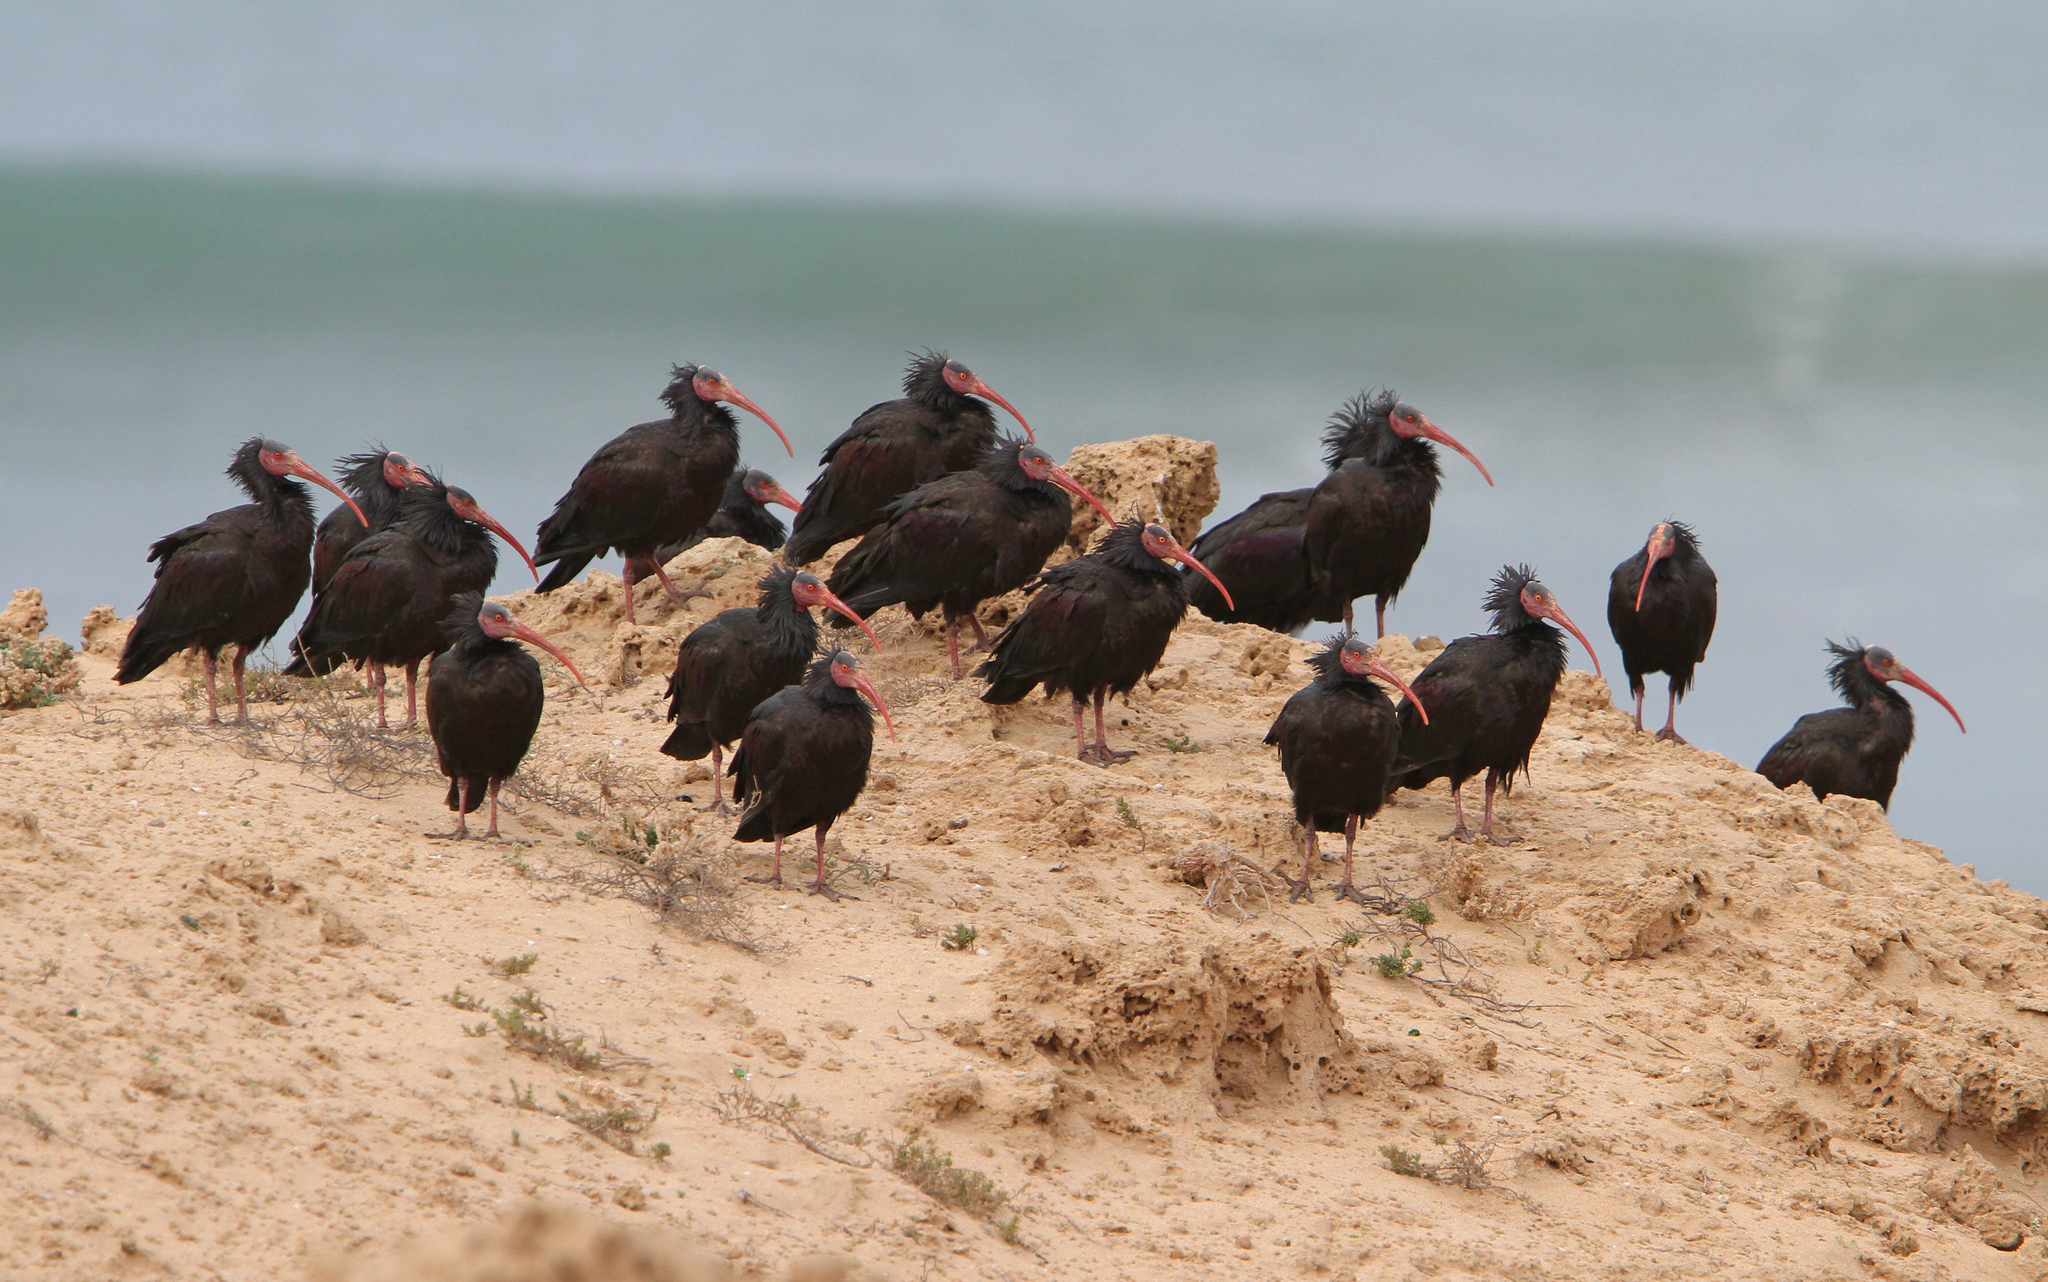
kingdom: Animalia
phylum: Chordata
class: Aves
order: Pelecaniformes
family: Threskiornithidae
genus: Geronticus
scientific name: Geronticus eremita
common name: Northern bald ibis
